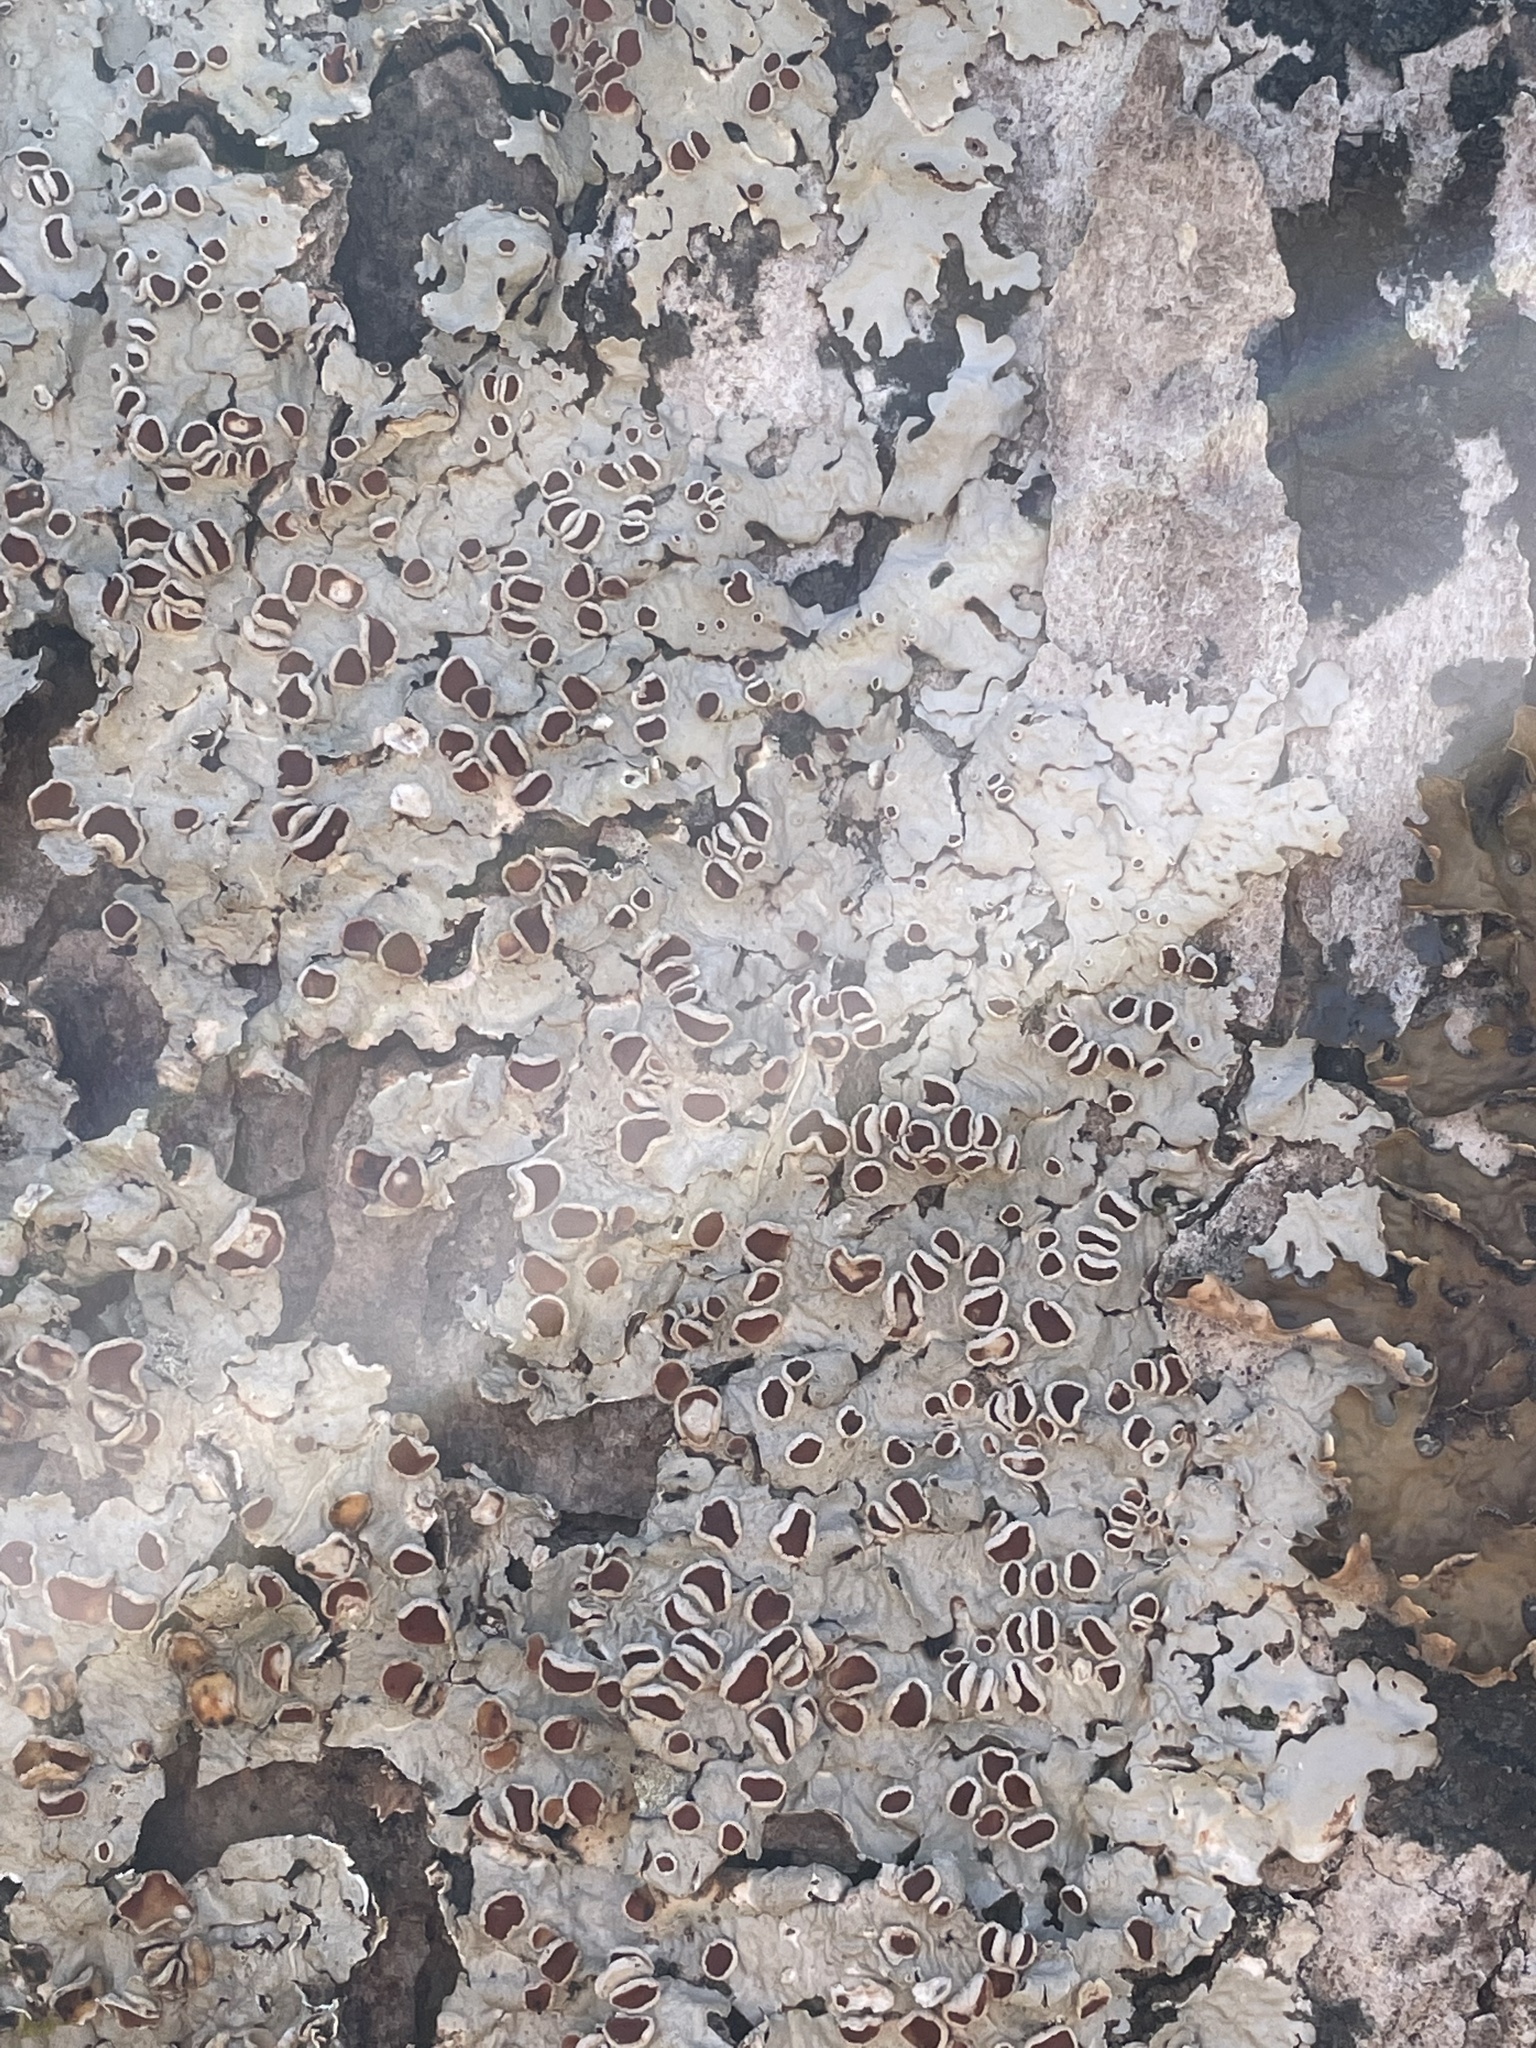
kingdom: Fungi
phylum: Ascomycota
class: Lecanoromycetes
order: Peltigerales
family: Lobariaceae
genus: Ricasolia
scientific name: Ricasolia quercizans
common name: Smooth lungwort
